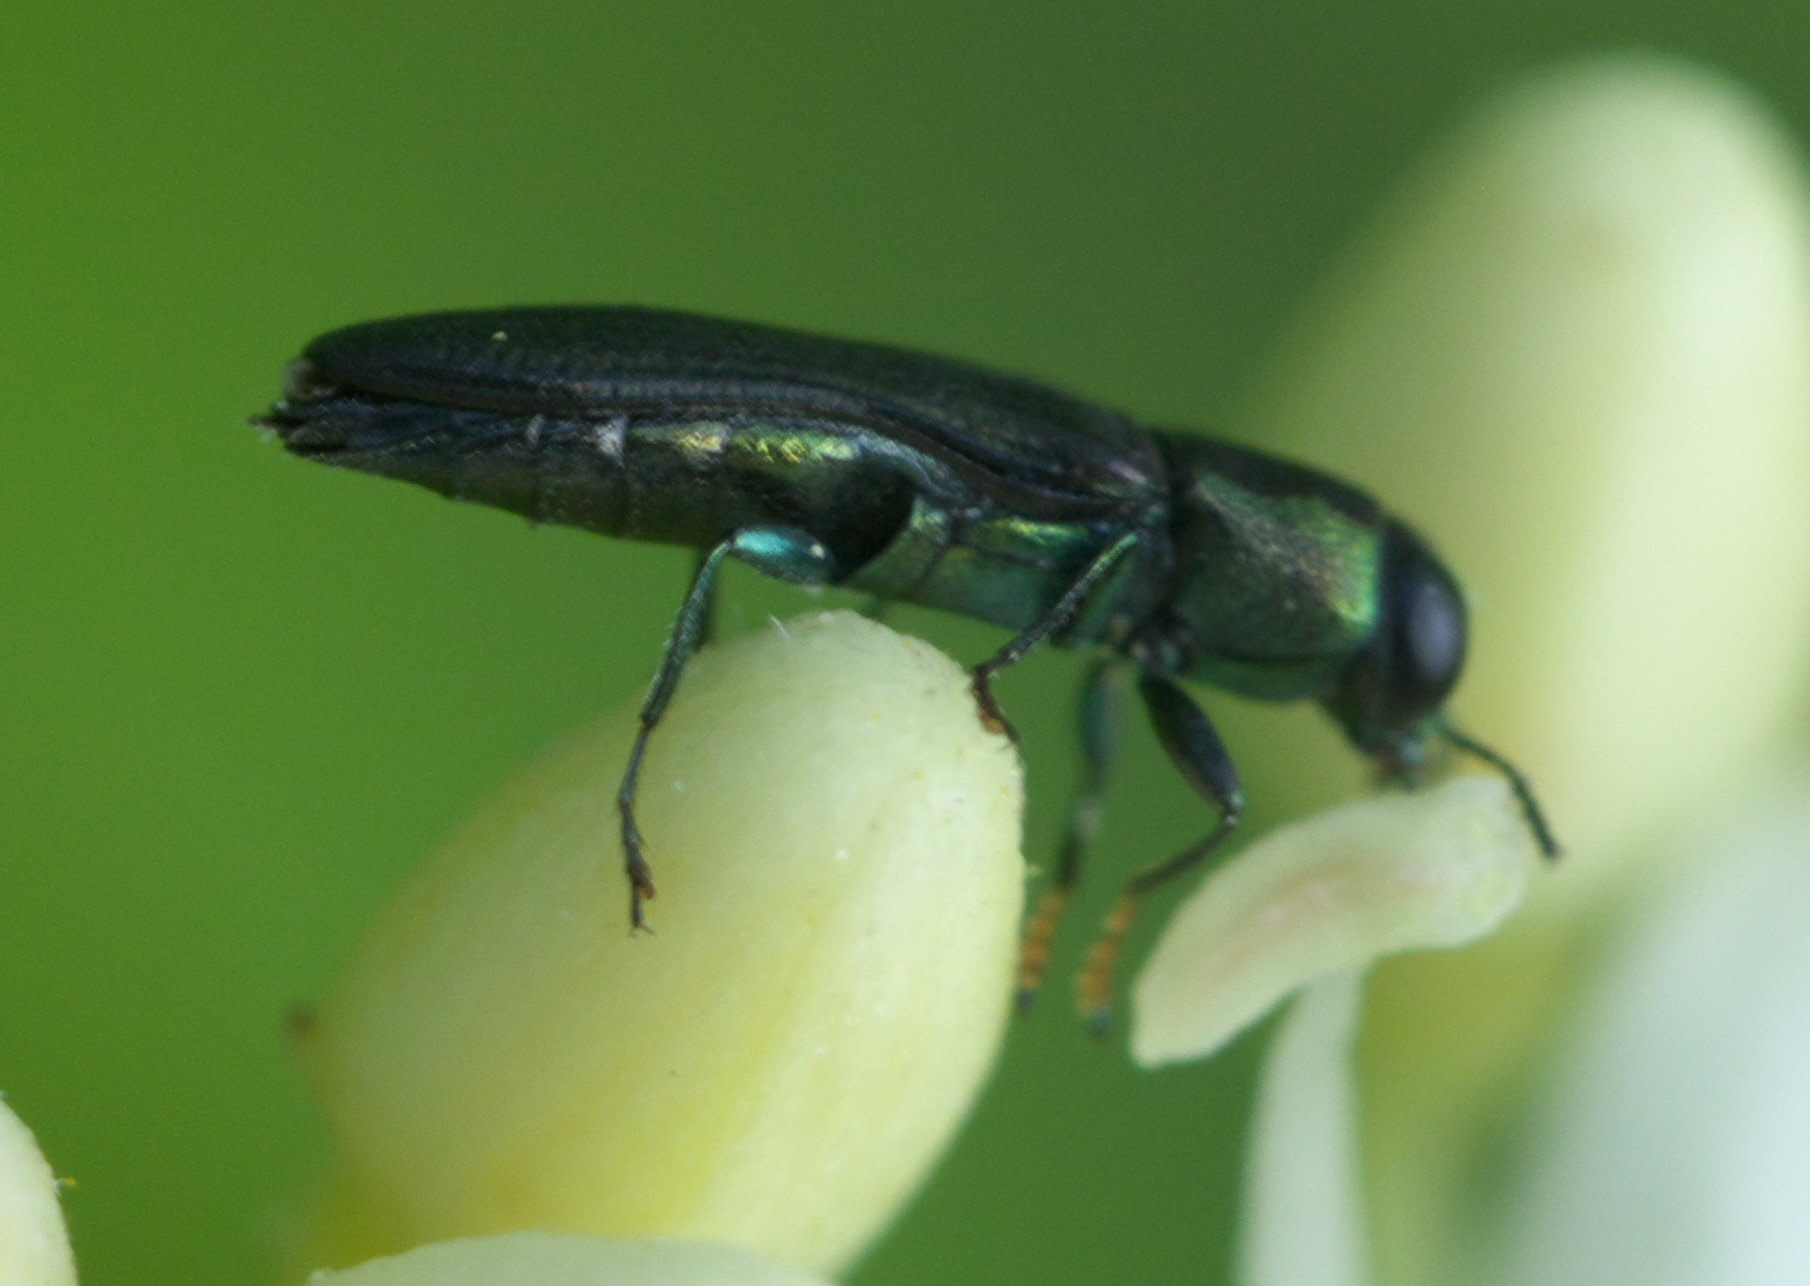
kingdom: Animalia
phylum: Arthropoda
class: Insecta
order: Coleoptera
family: Buprestidae
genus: Agrilaxia
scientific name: Agrilaxia flavimana
